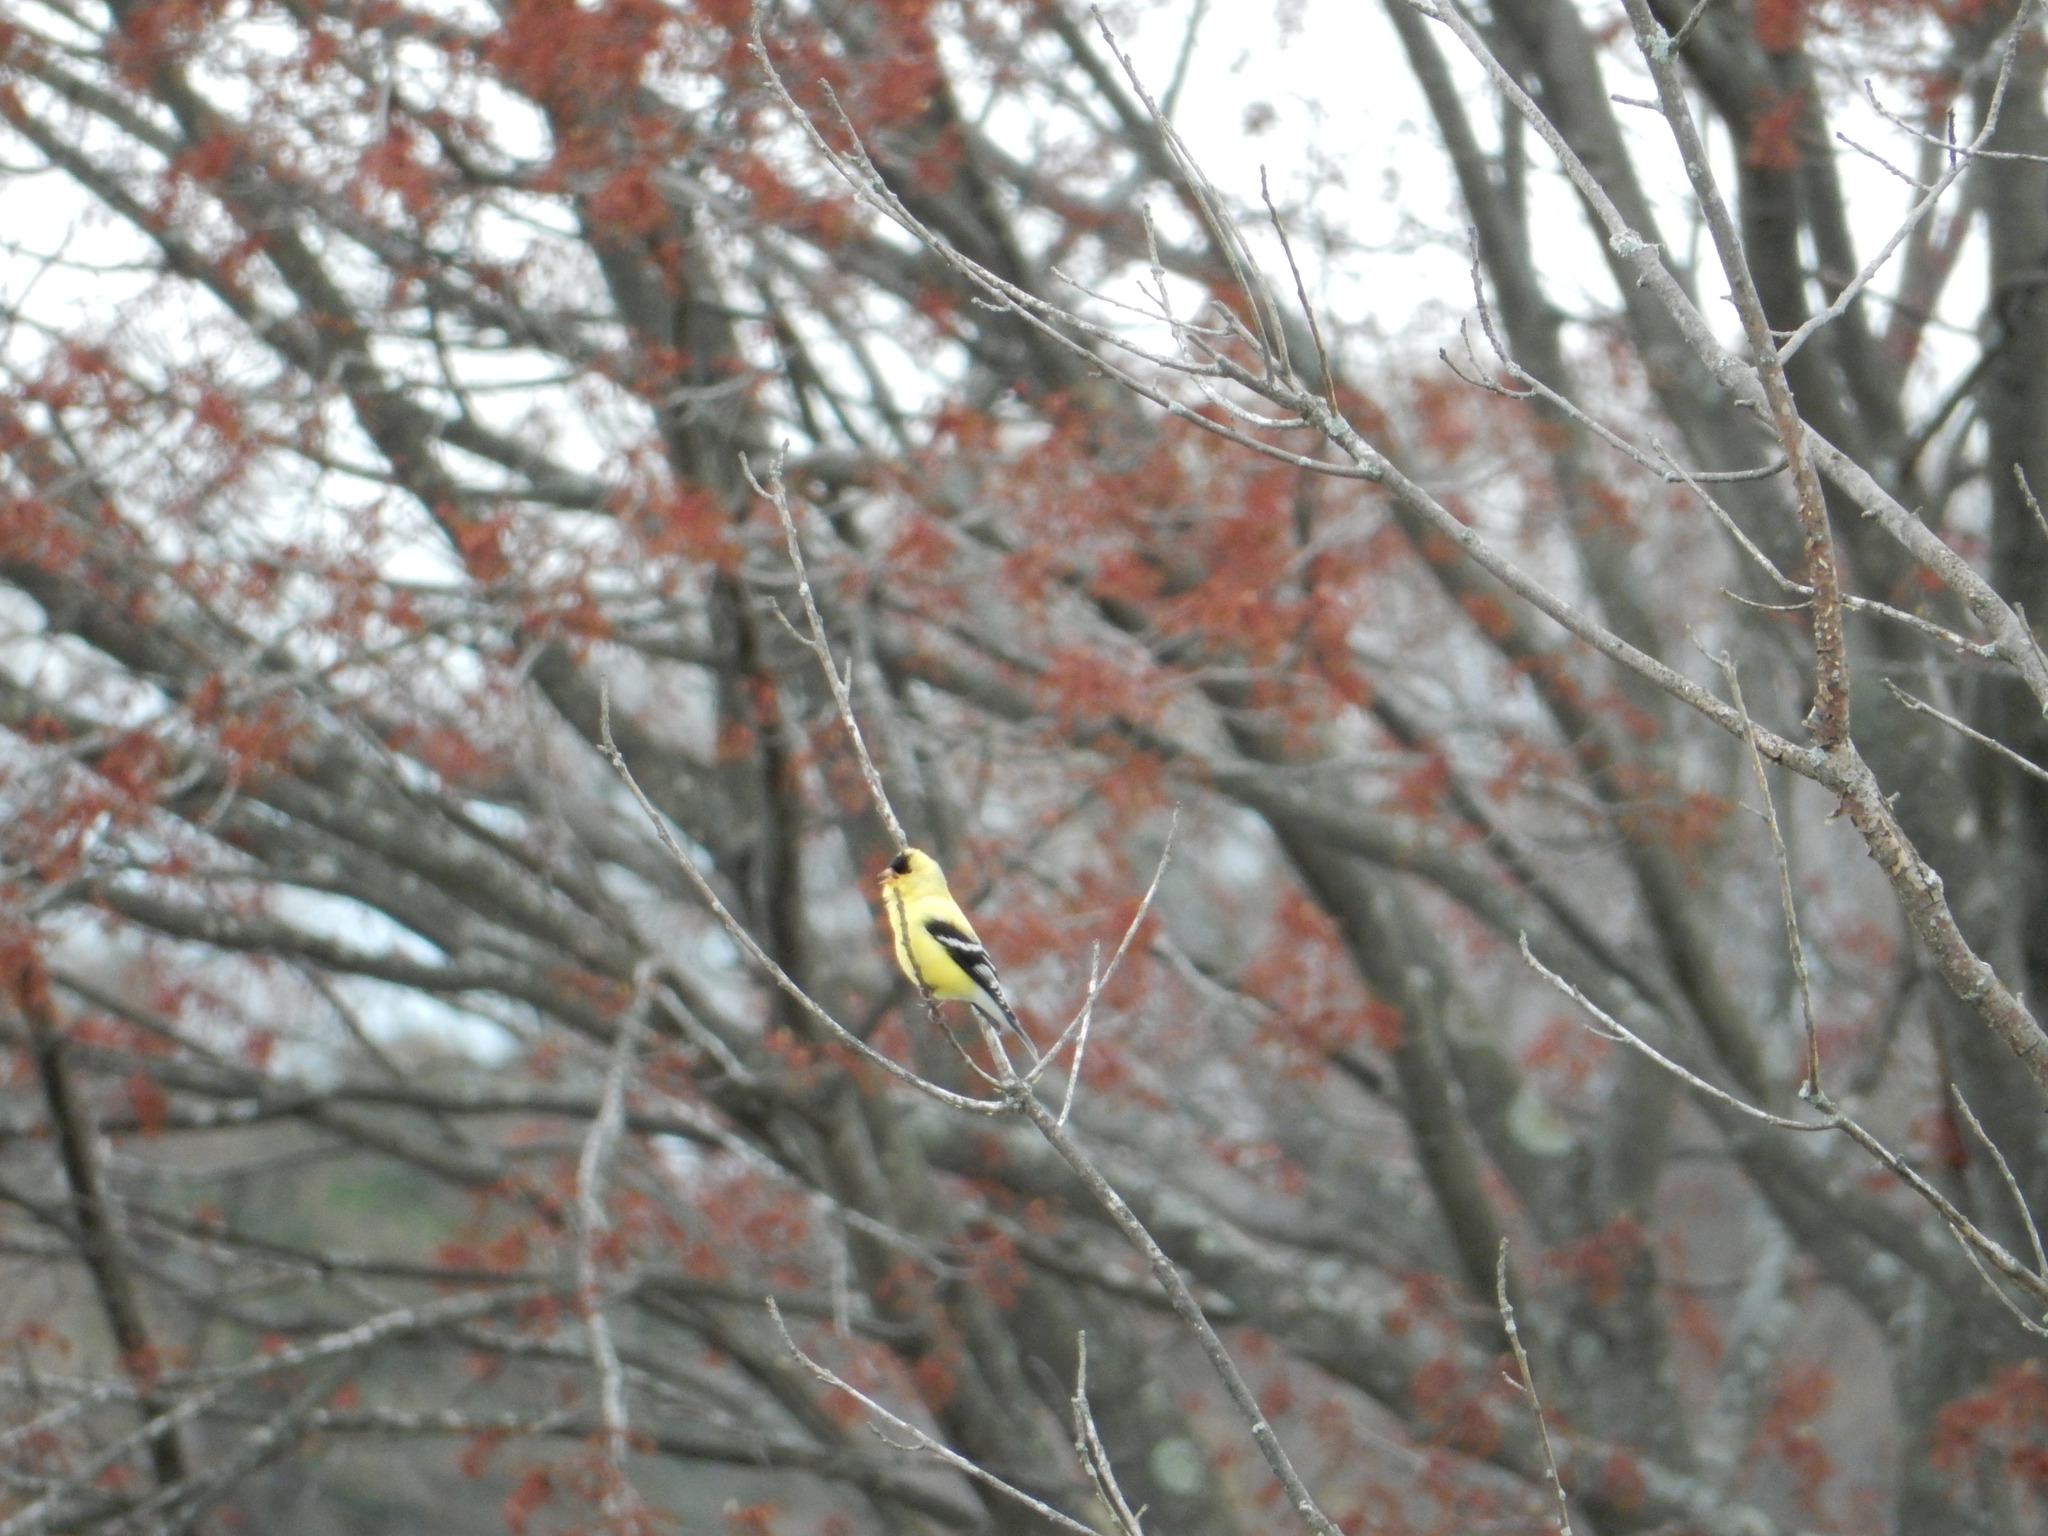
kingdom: Animalia
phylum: Chordata
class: Aves
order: Passeriformes
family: Fringillidae
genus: Spinus
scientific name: Spinus tristis
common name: American goldfinch
